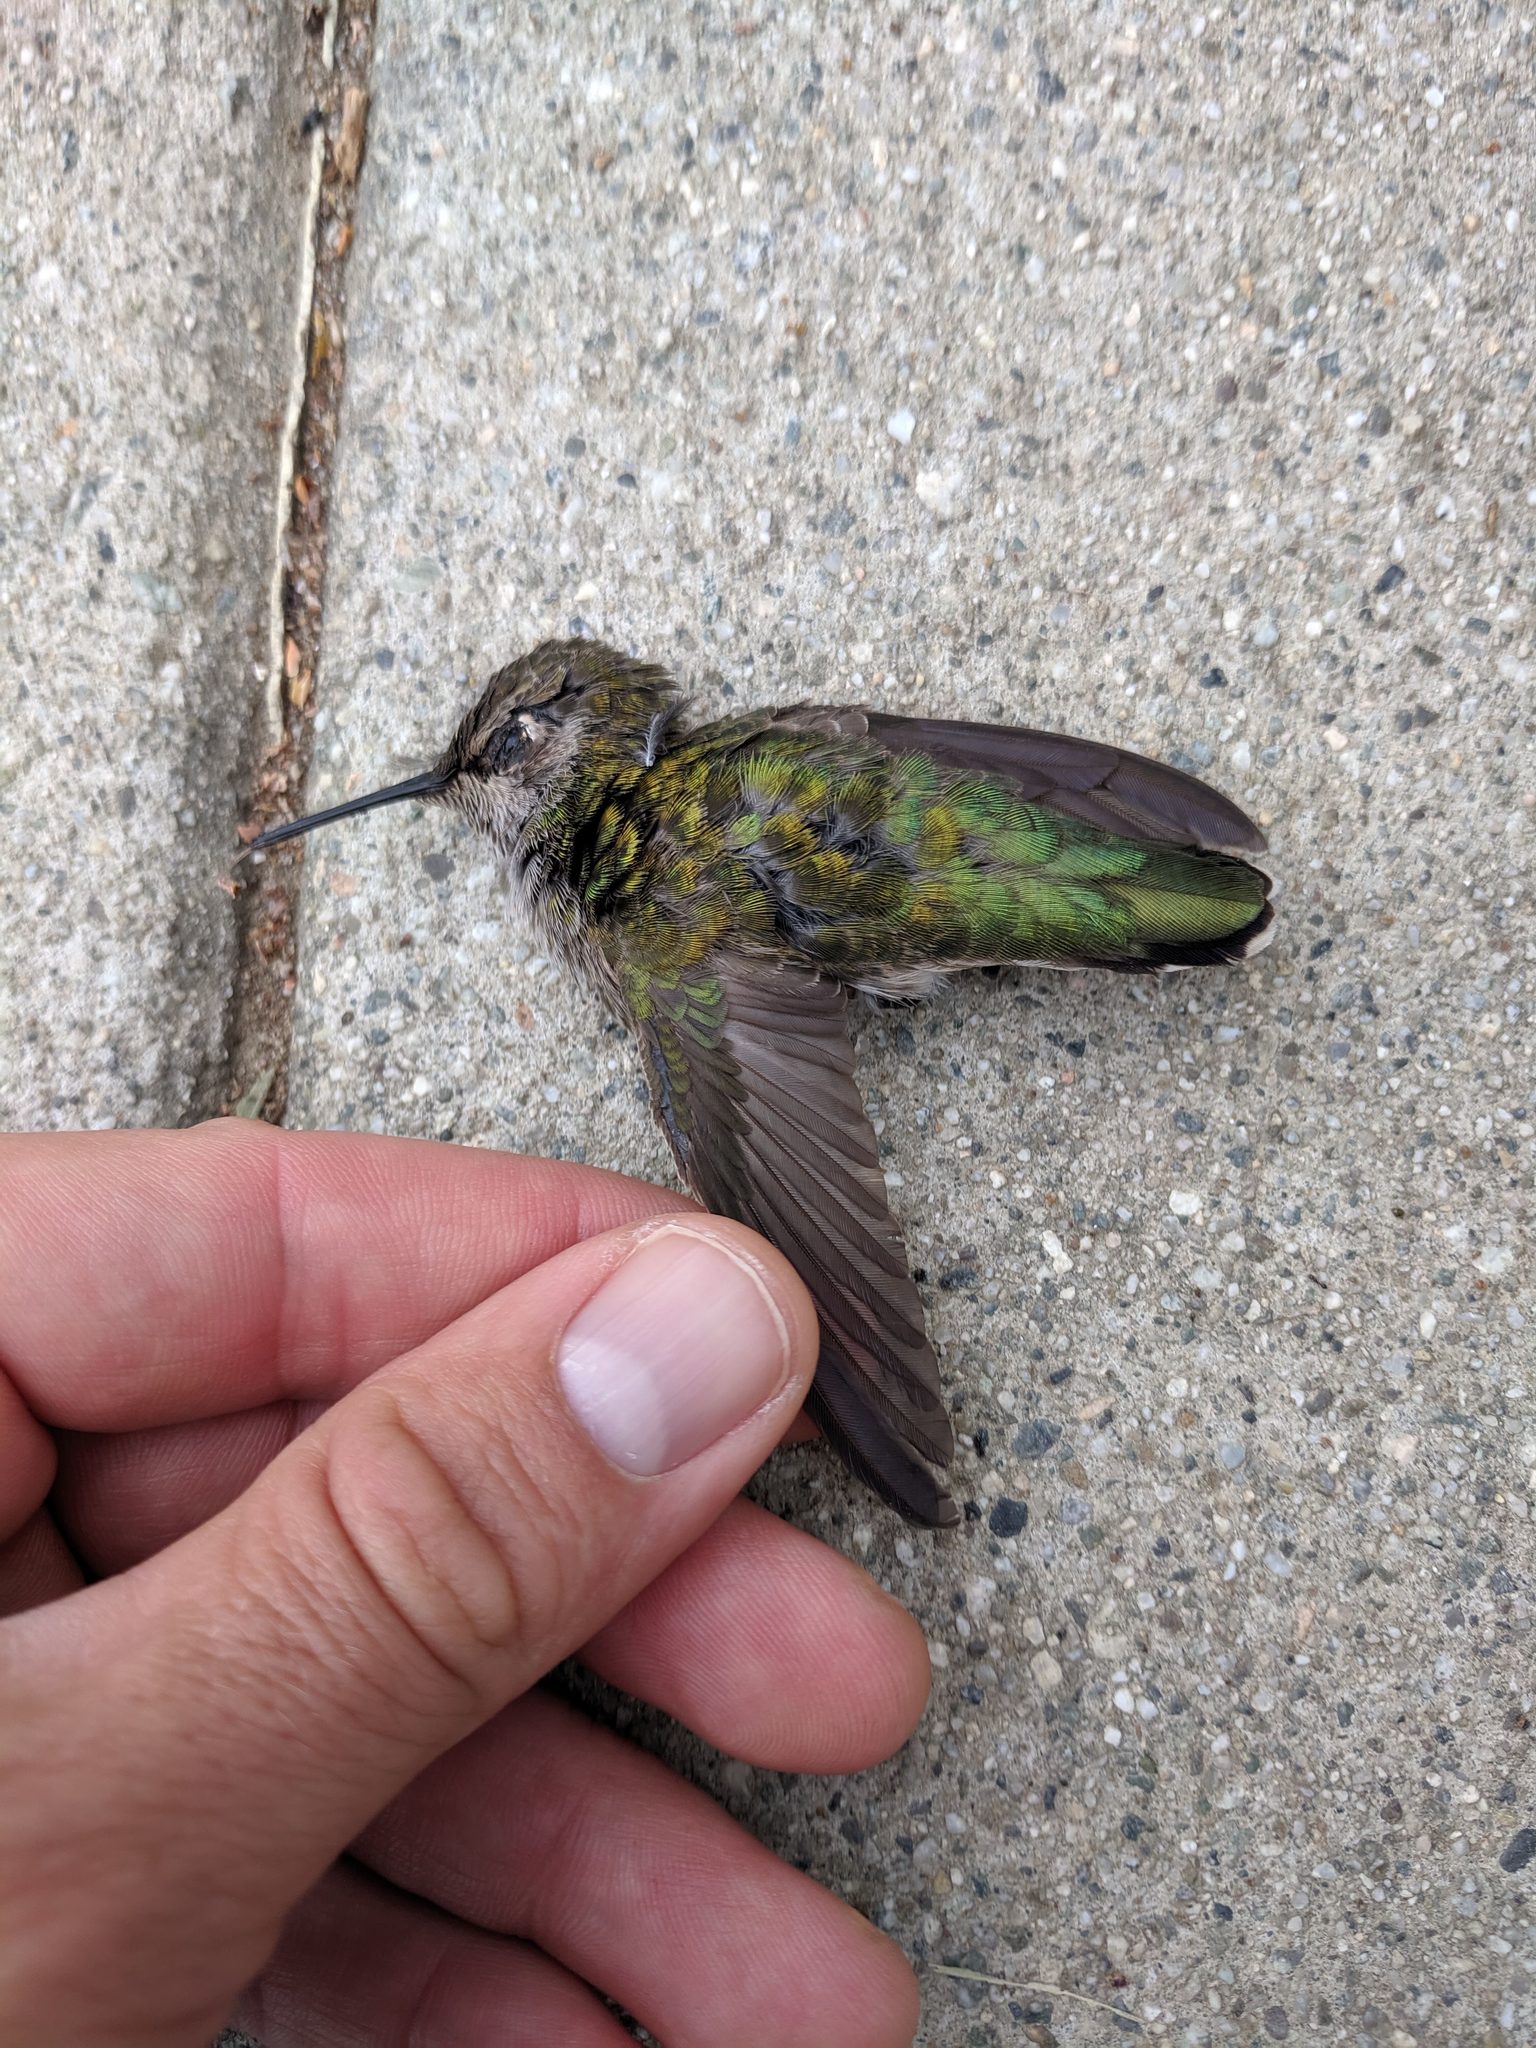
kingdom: Animalia
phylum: Chordata
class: Aves
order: Apodiformes
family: Trochilidae
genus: Calypte
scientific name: Calypte anna
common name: Anna's hummingbird
